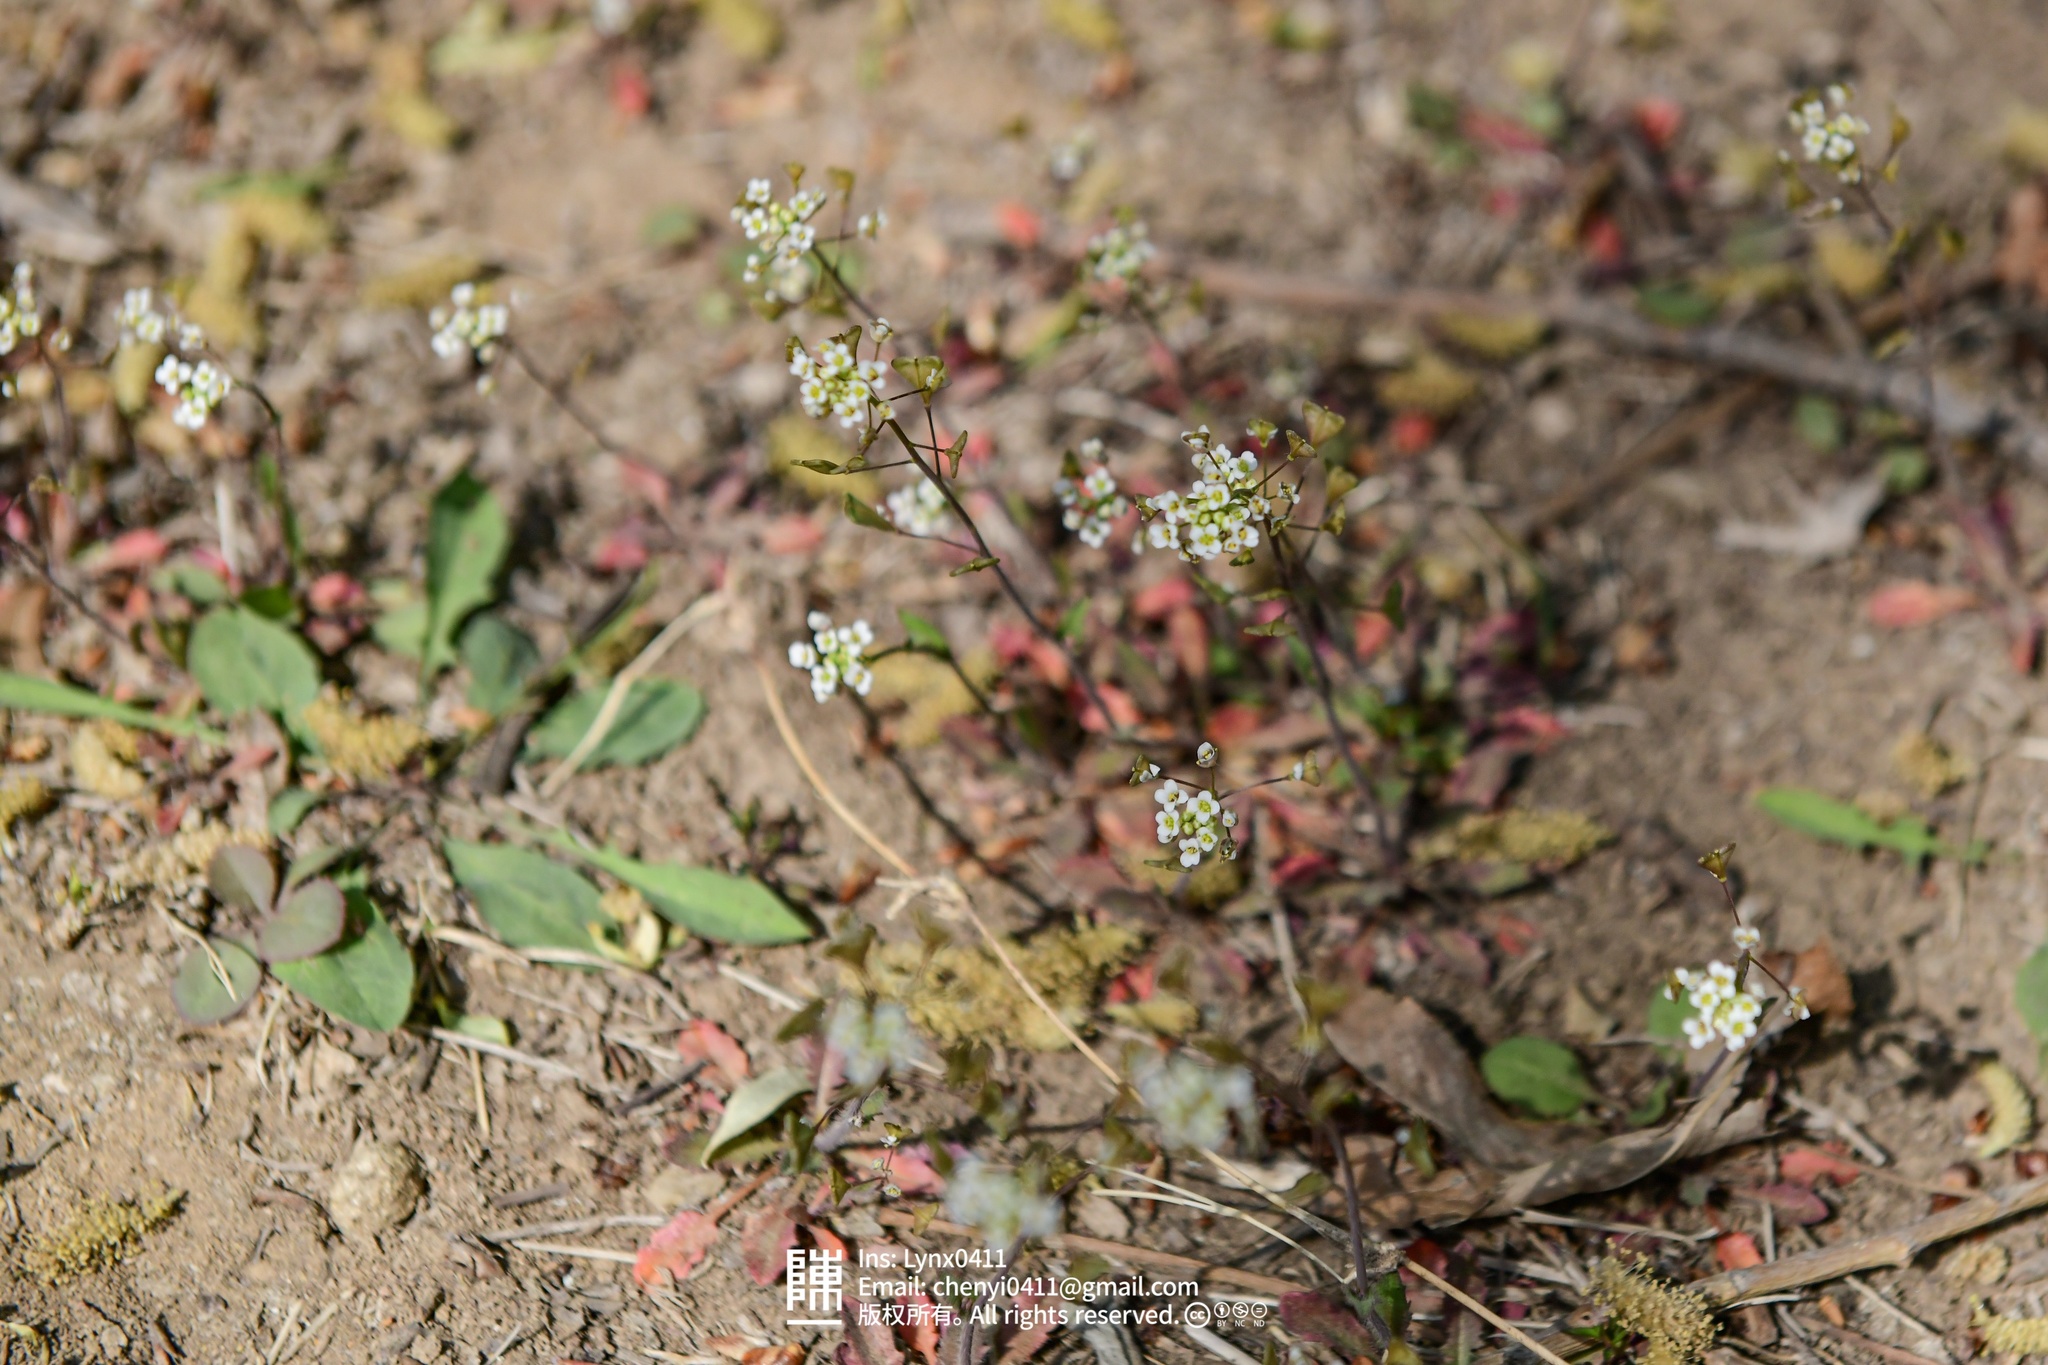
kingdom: Plantae
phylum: Tracheophyta
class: Magnoliopsida
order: Brassicales
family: Brassicaceae
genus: Capsella
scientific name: Capsella bursa-pastoris
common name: Shepherd's purse
